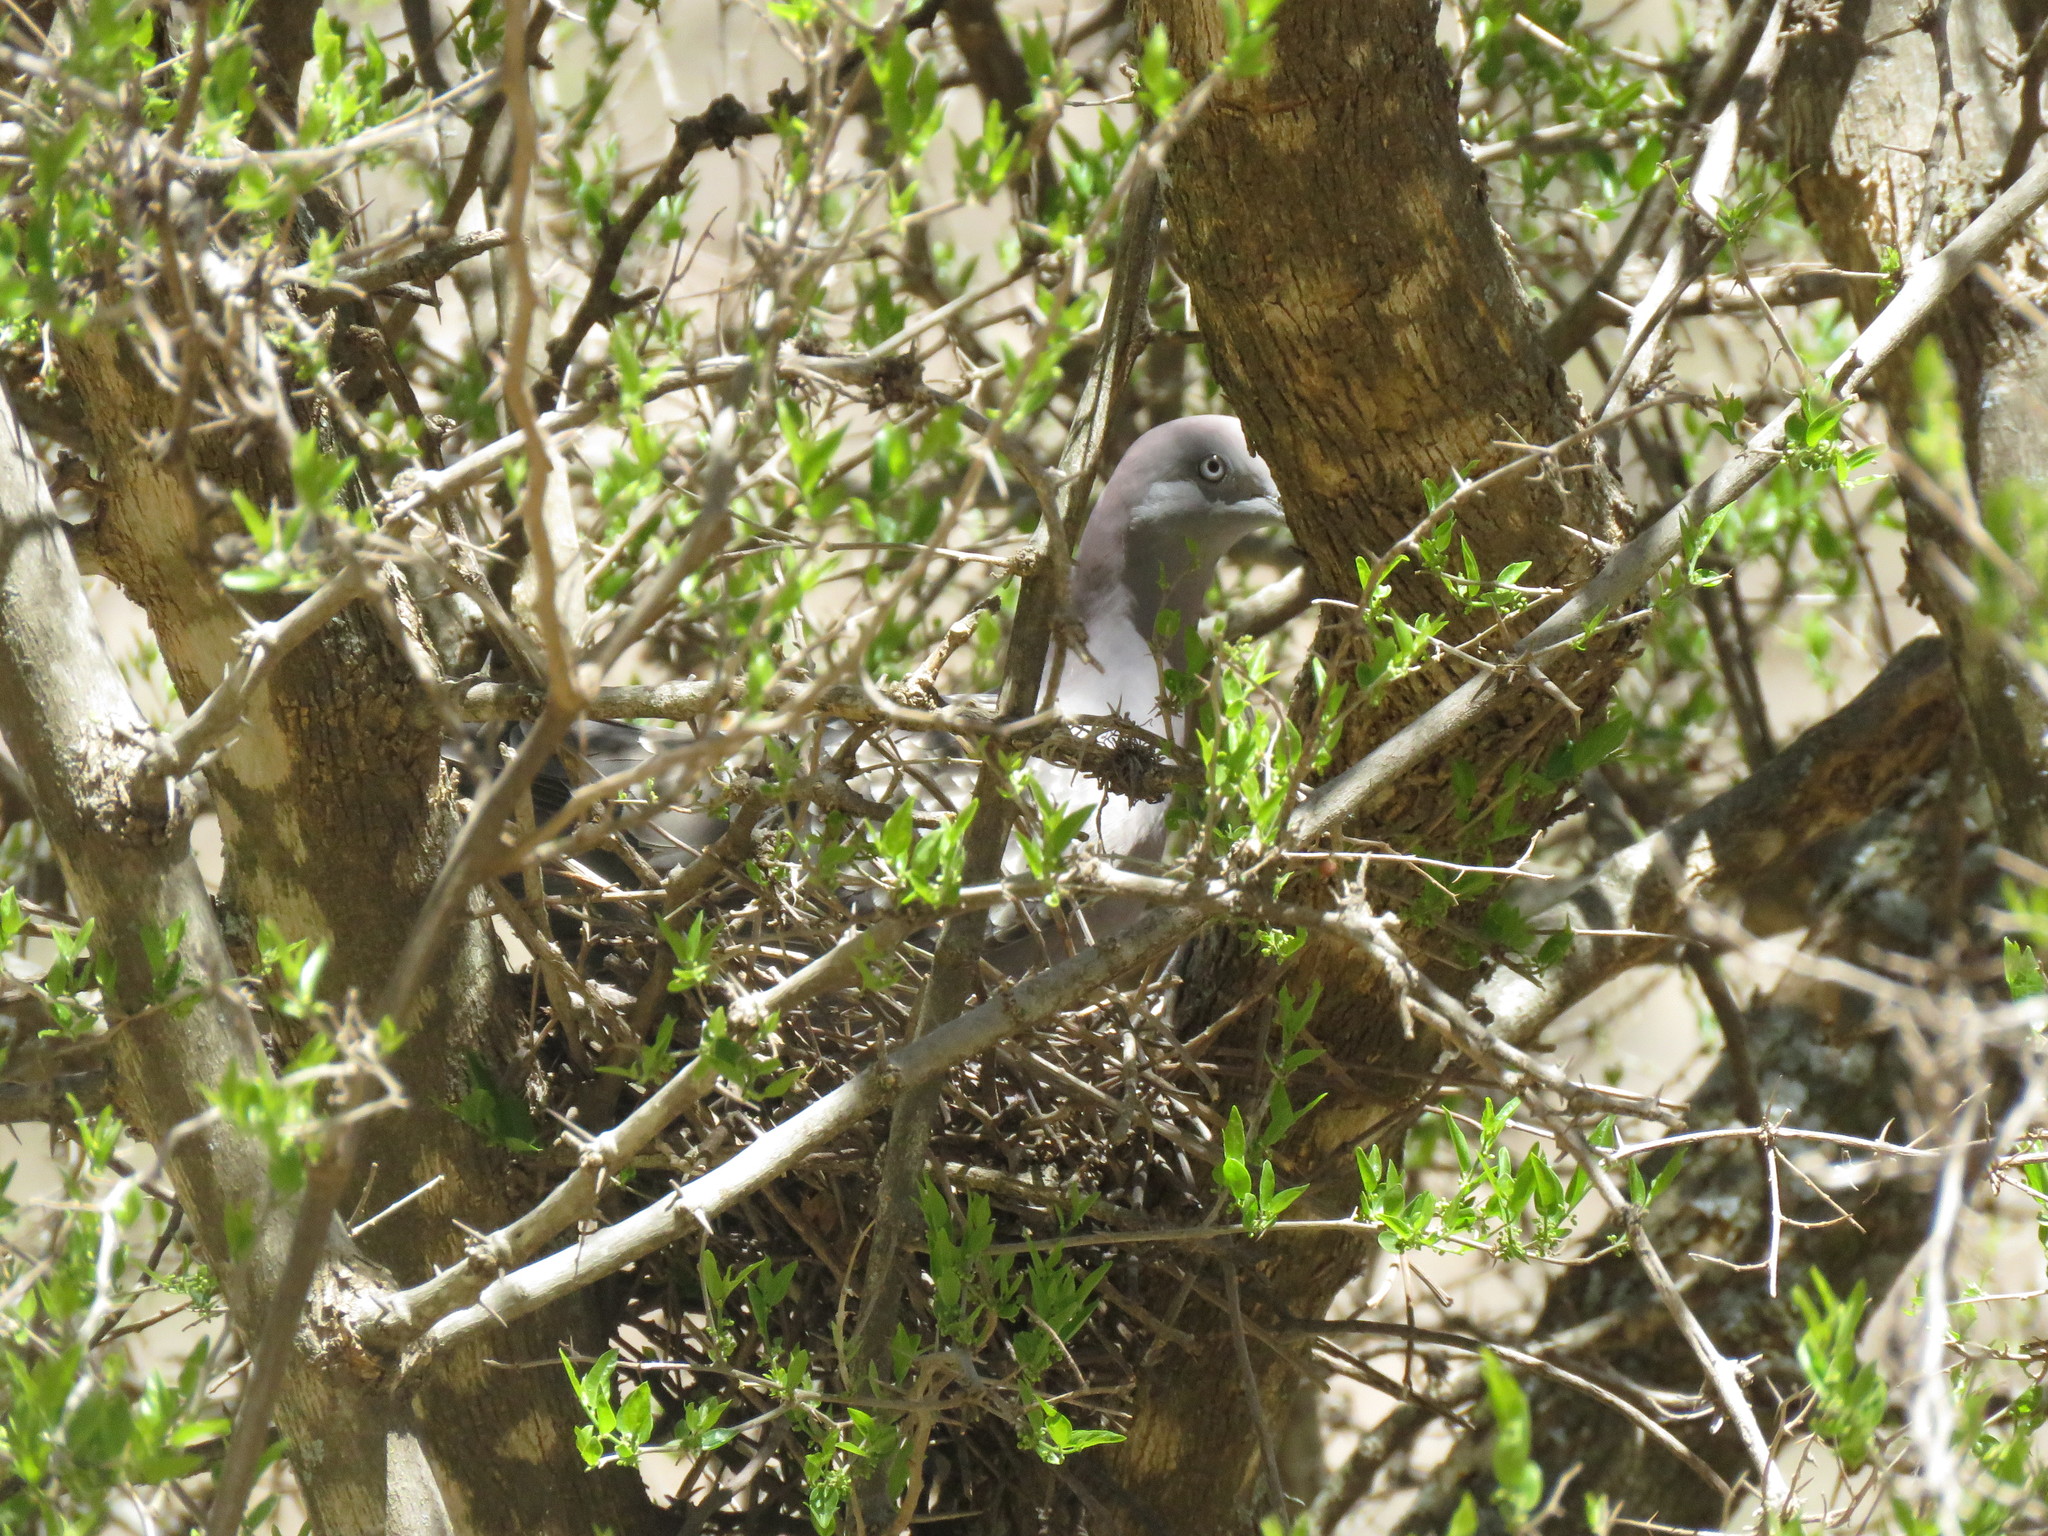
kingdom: Animalia
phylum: Chordata
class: Aves
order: Columbiformes
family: Columbidae
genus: Patagioenas
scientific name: Patagioenas maculosa
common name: Spot-winged pigeon
